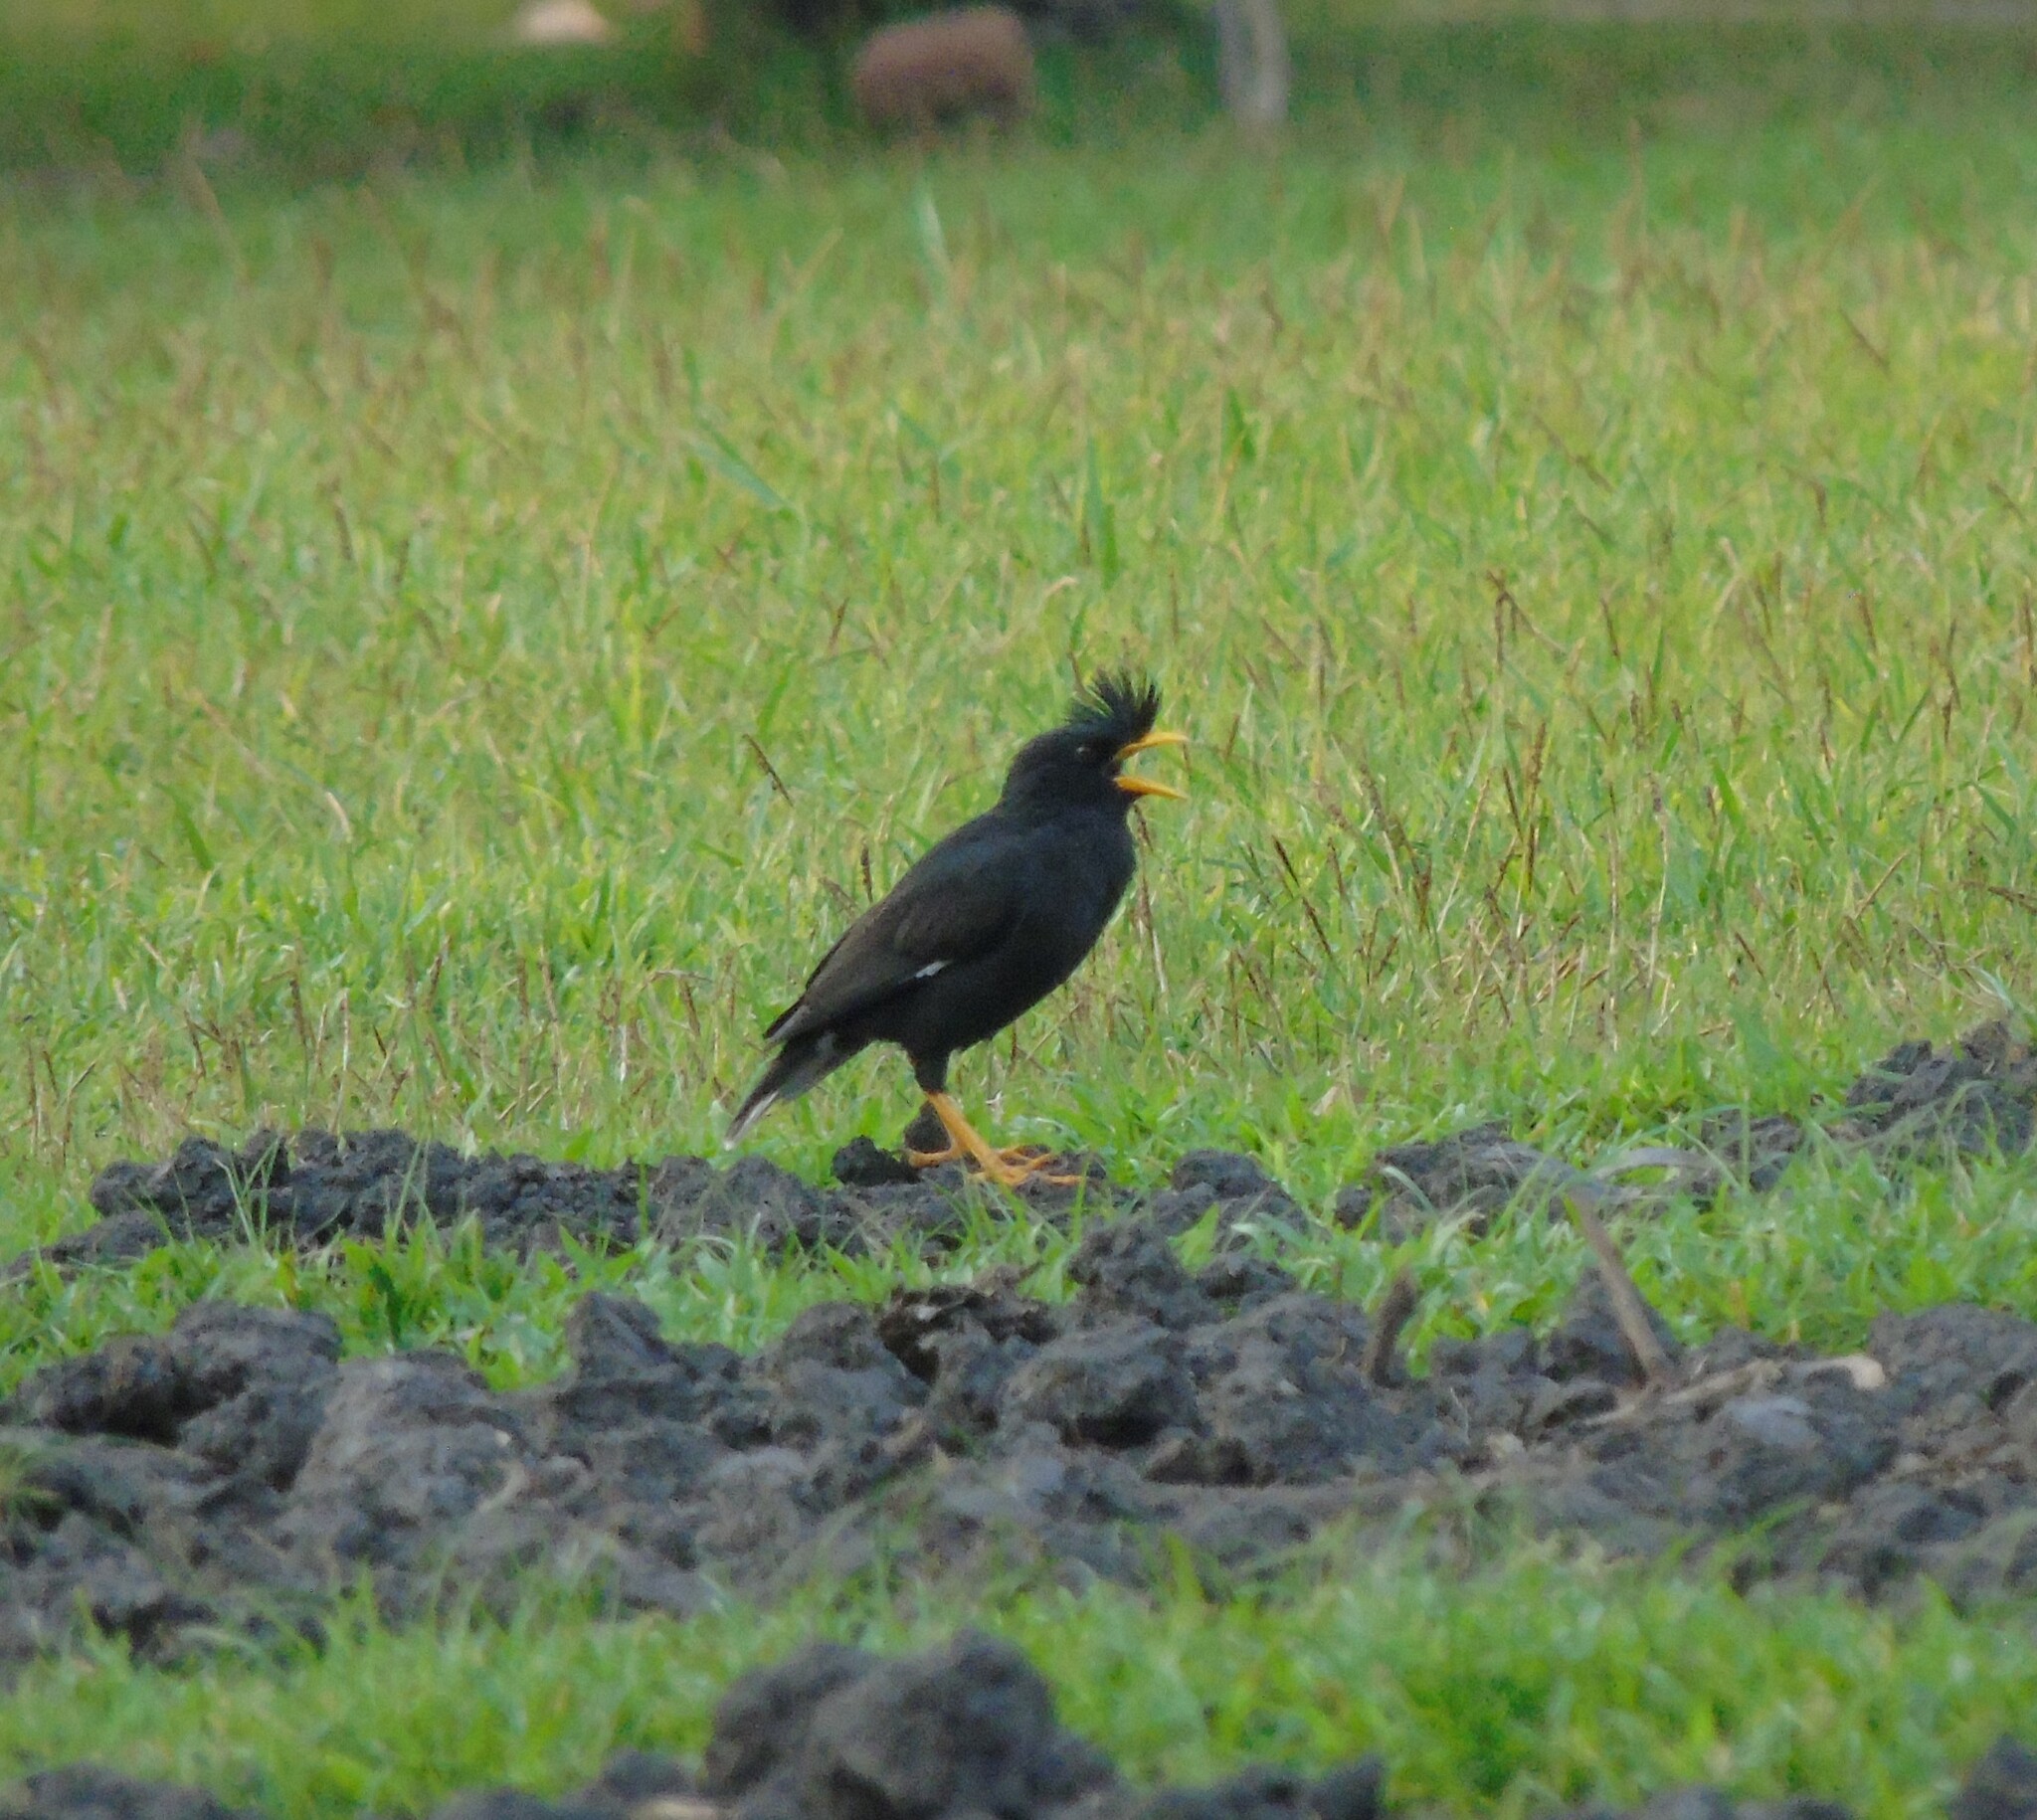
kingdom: Animalia
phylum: Chordata
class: Aves
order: Passeriformes
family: Sturnidae
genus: Acridotheres
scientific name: Acridotheres grandis
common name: Great myna
